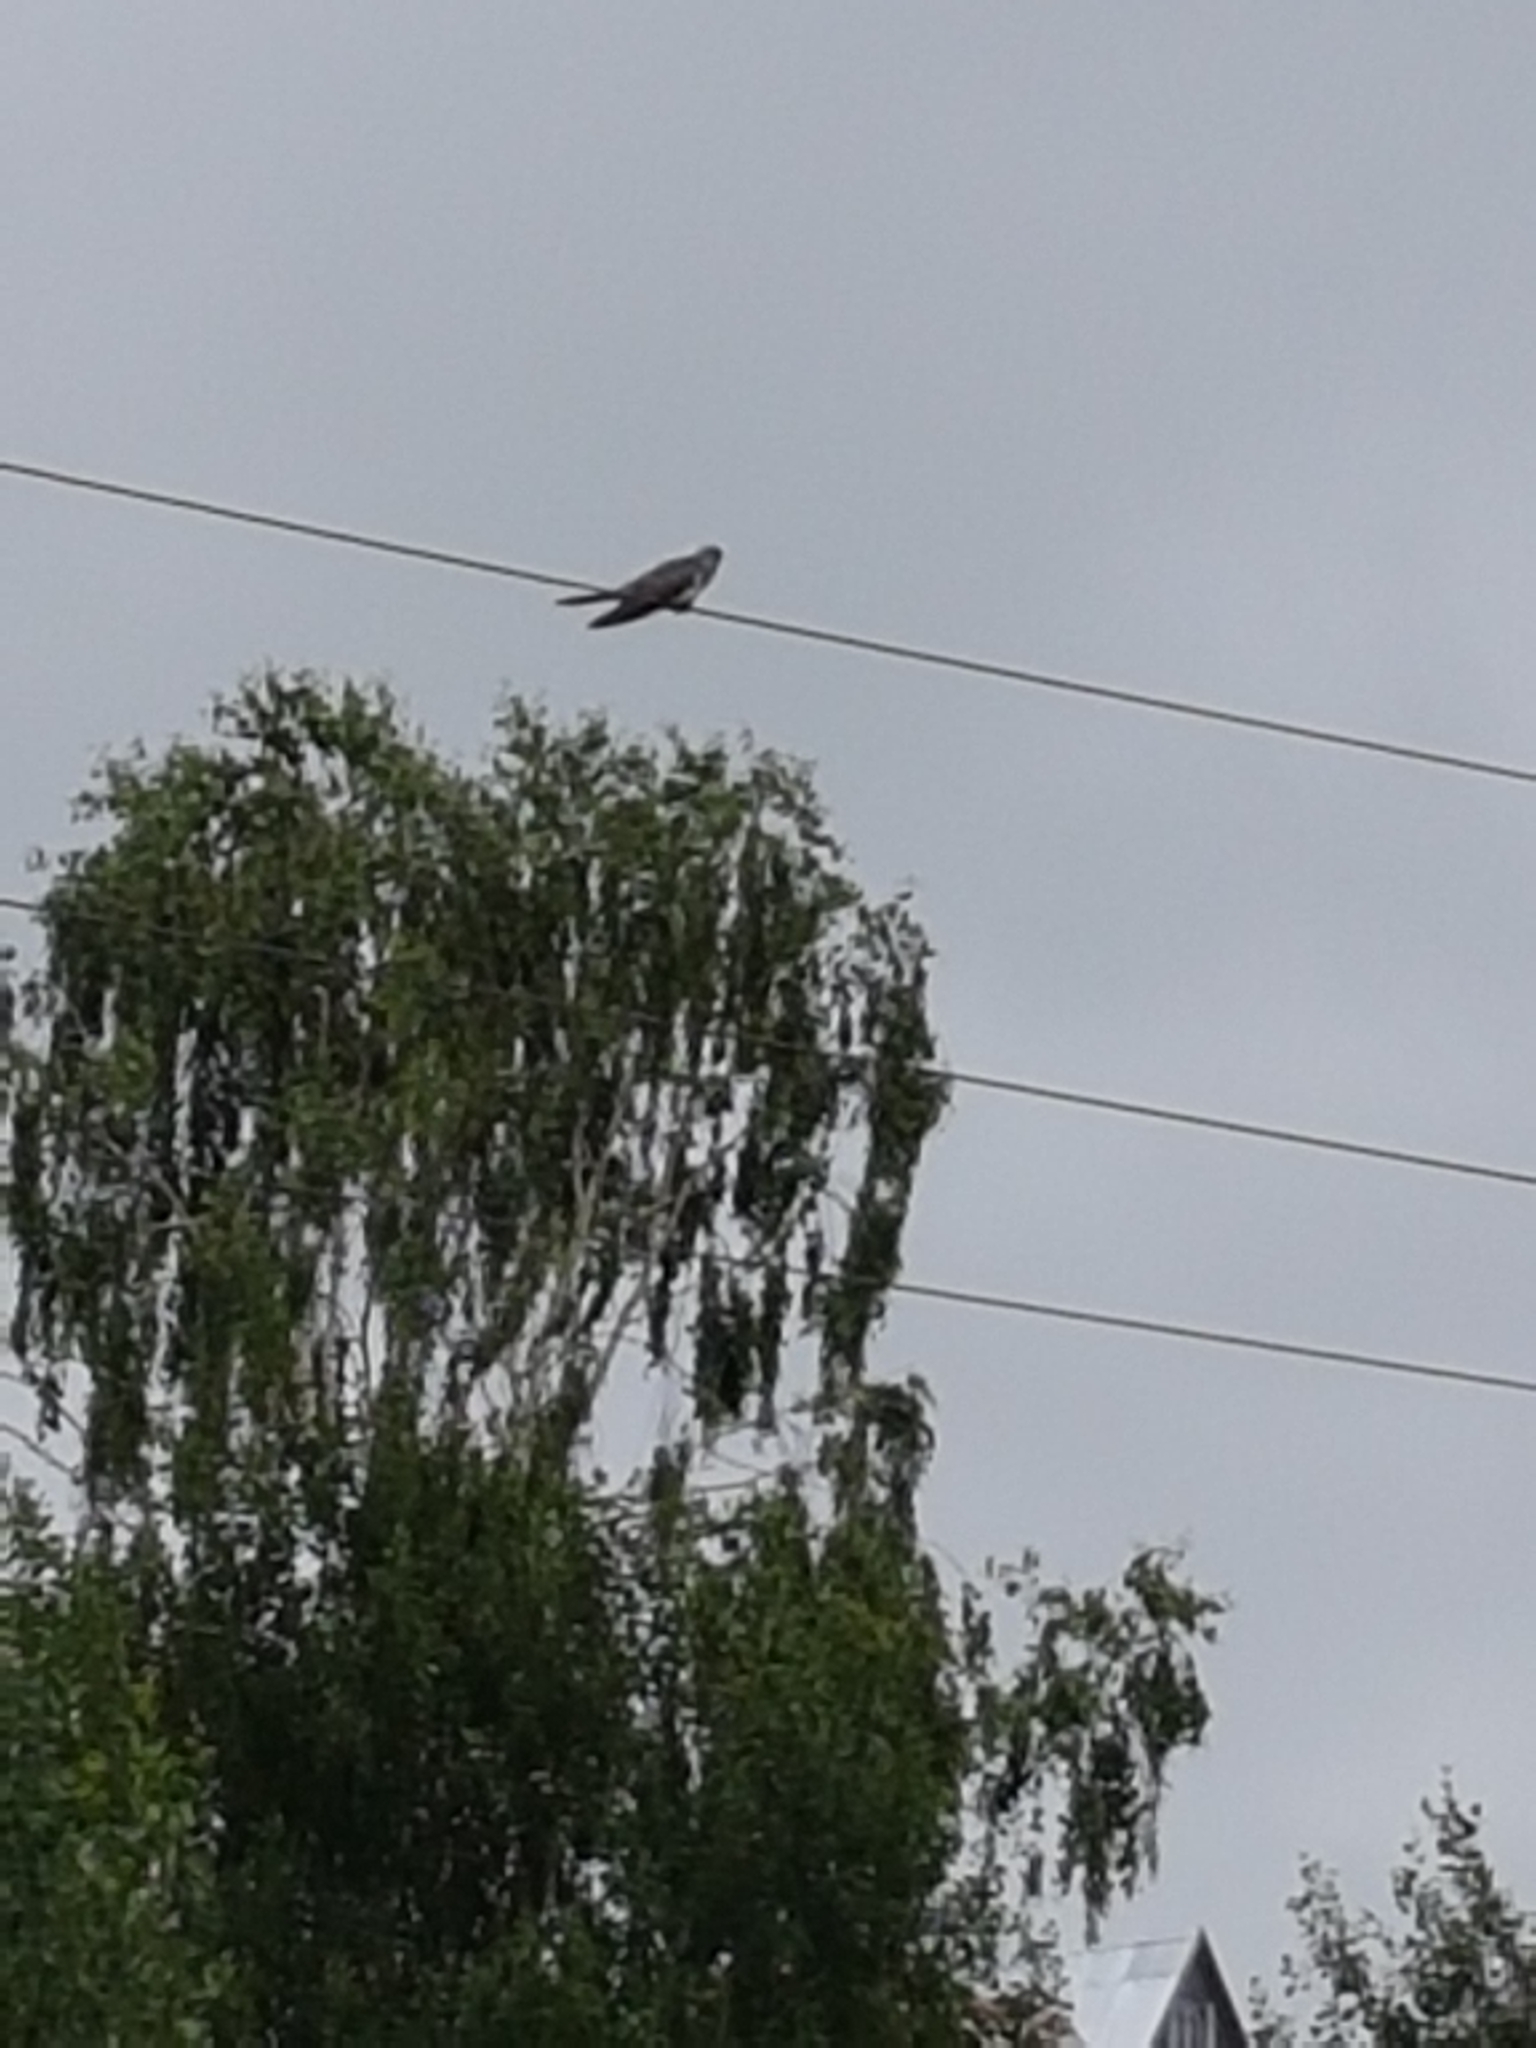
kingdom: Animalia
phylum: Chordata
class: Aves
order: Cuculiformes
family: Cuculidae
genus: Cuculus
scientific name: Cuculus canorus
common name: Common cuckoo
